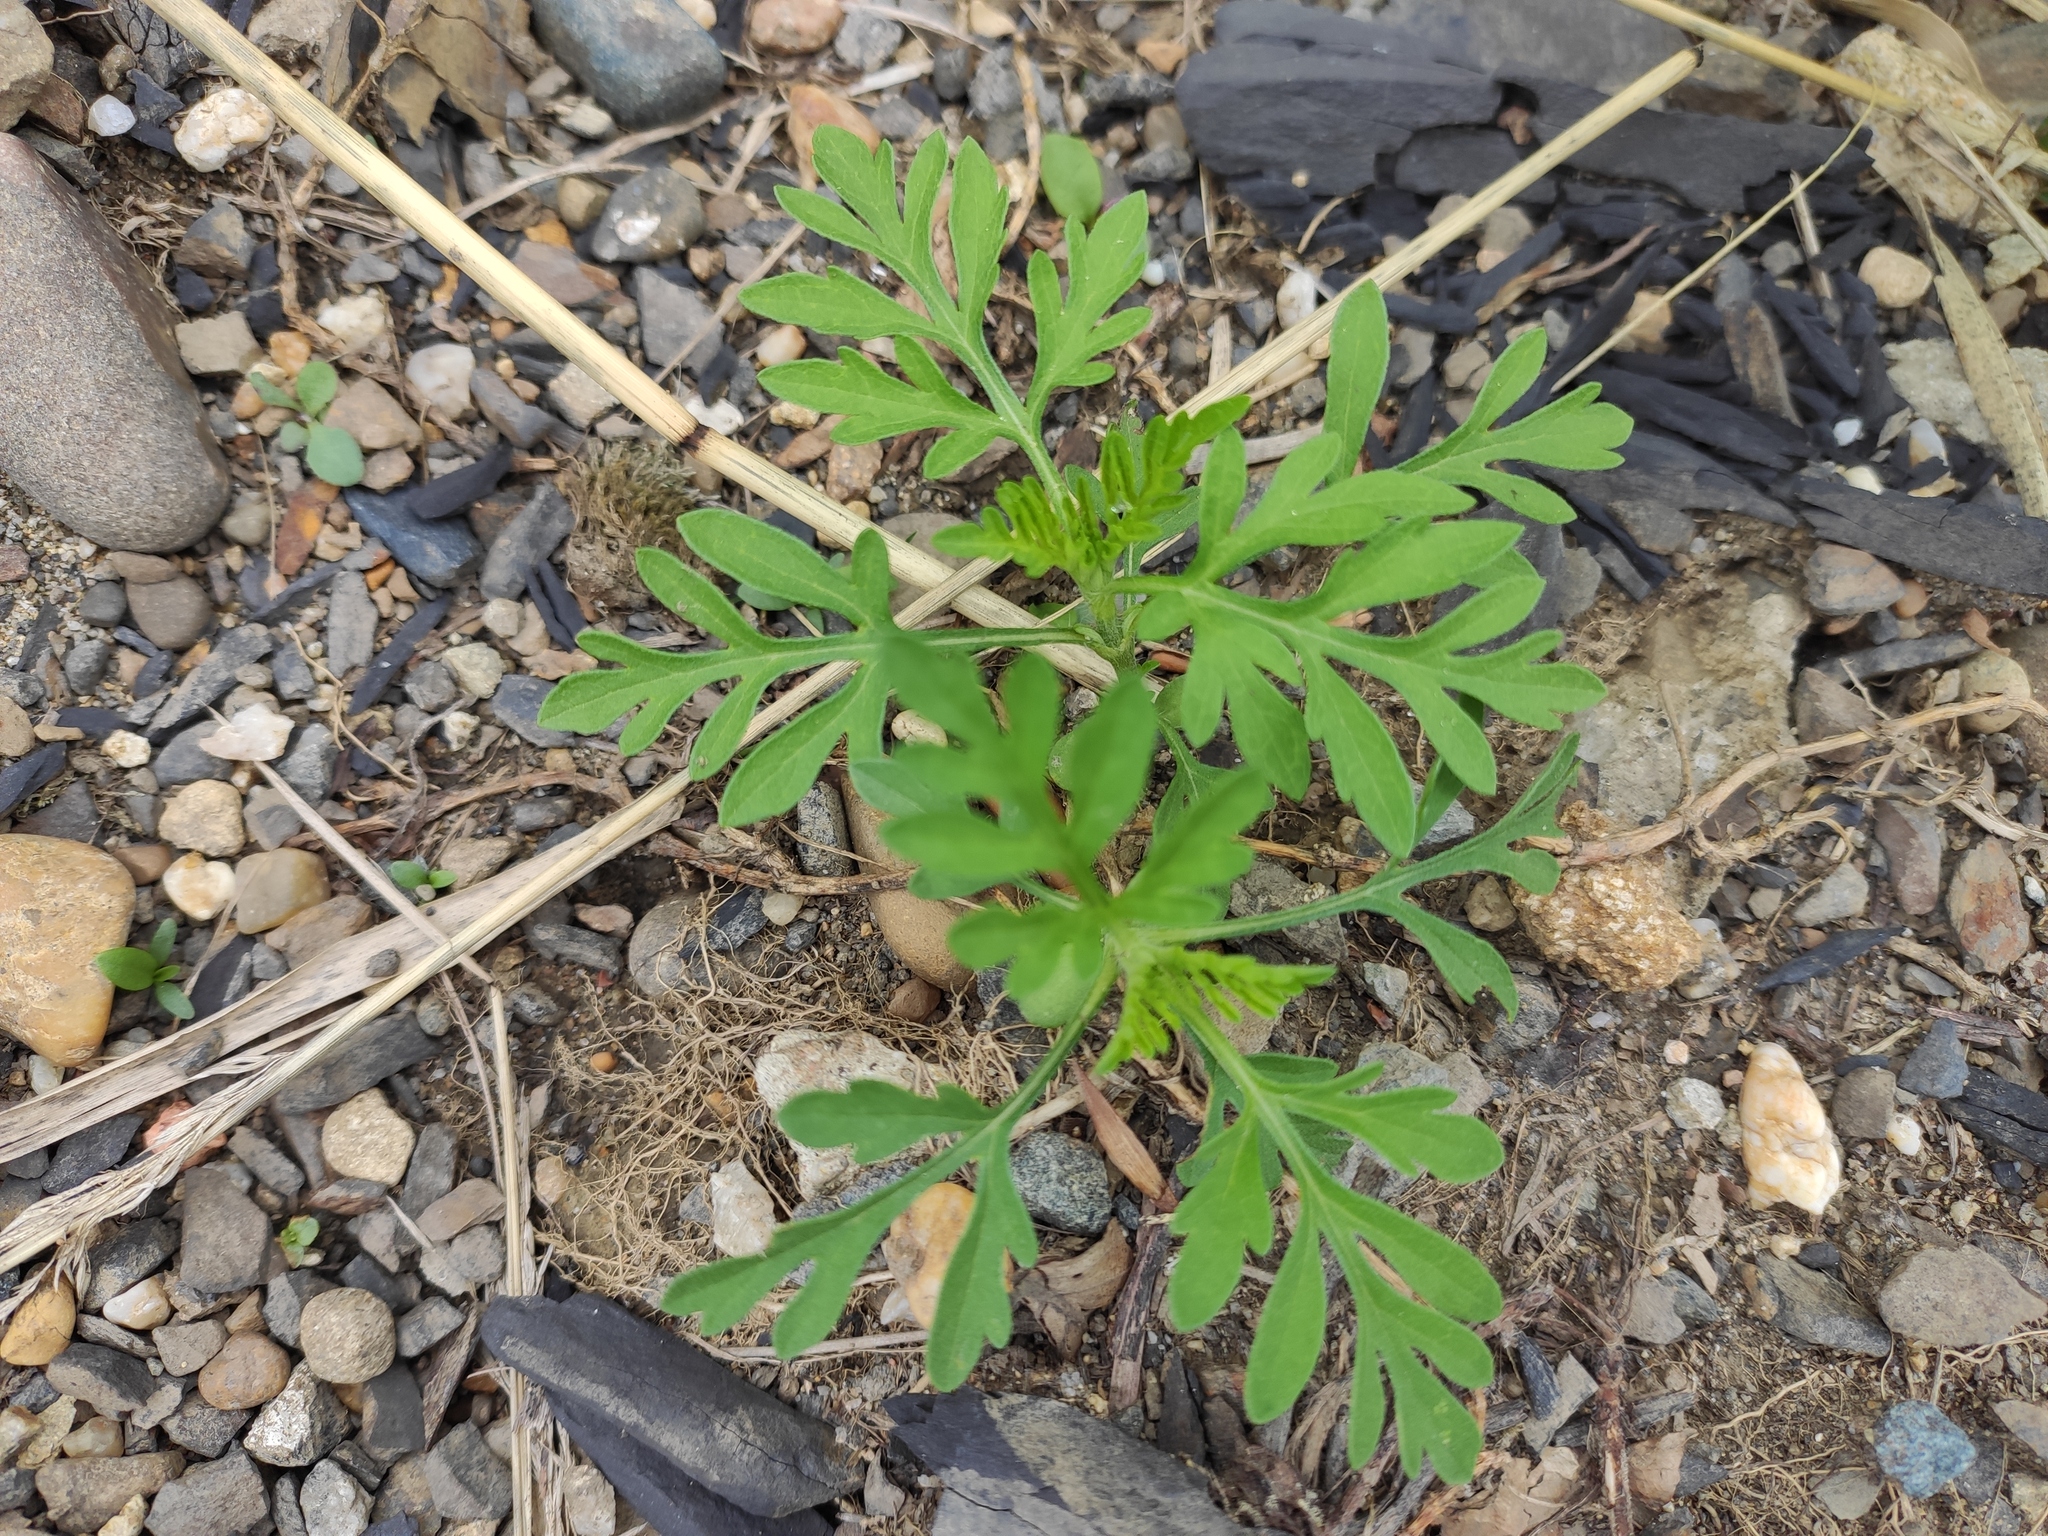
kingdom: Plantae
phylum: Tracheophyta
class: Magnoliopsida
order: Asterales
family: Asteraceae
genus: Ambrosia
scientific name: Ambrosia artemisiifolia
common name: Annual ragweed
